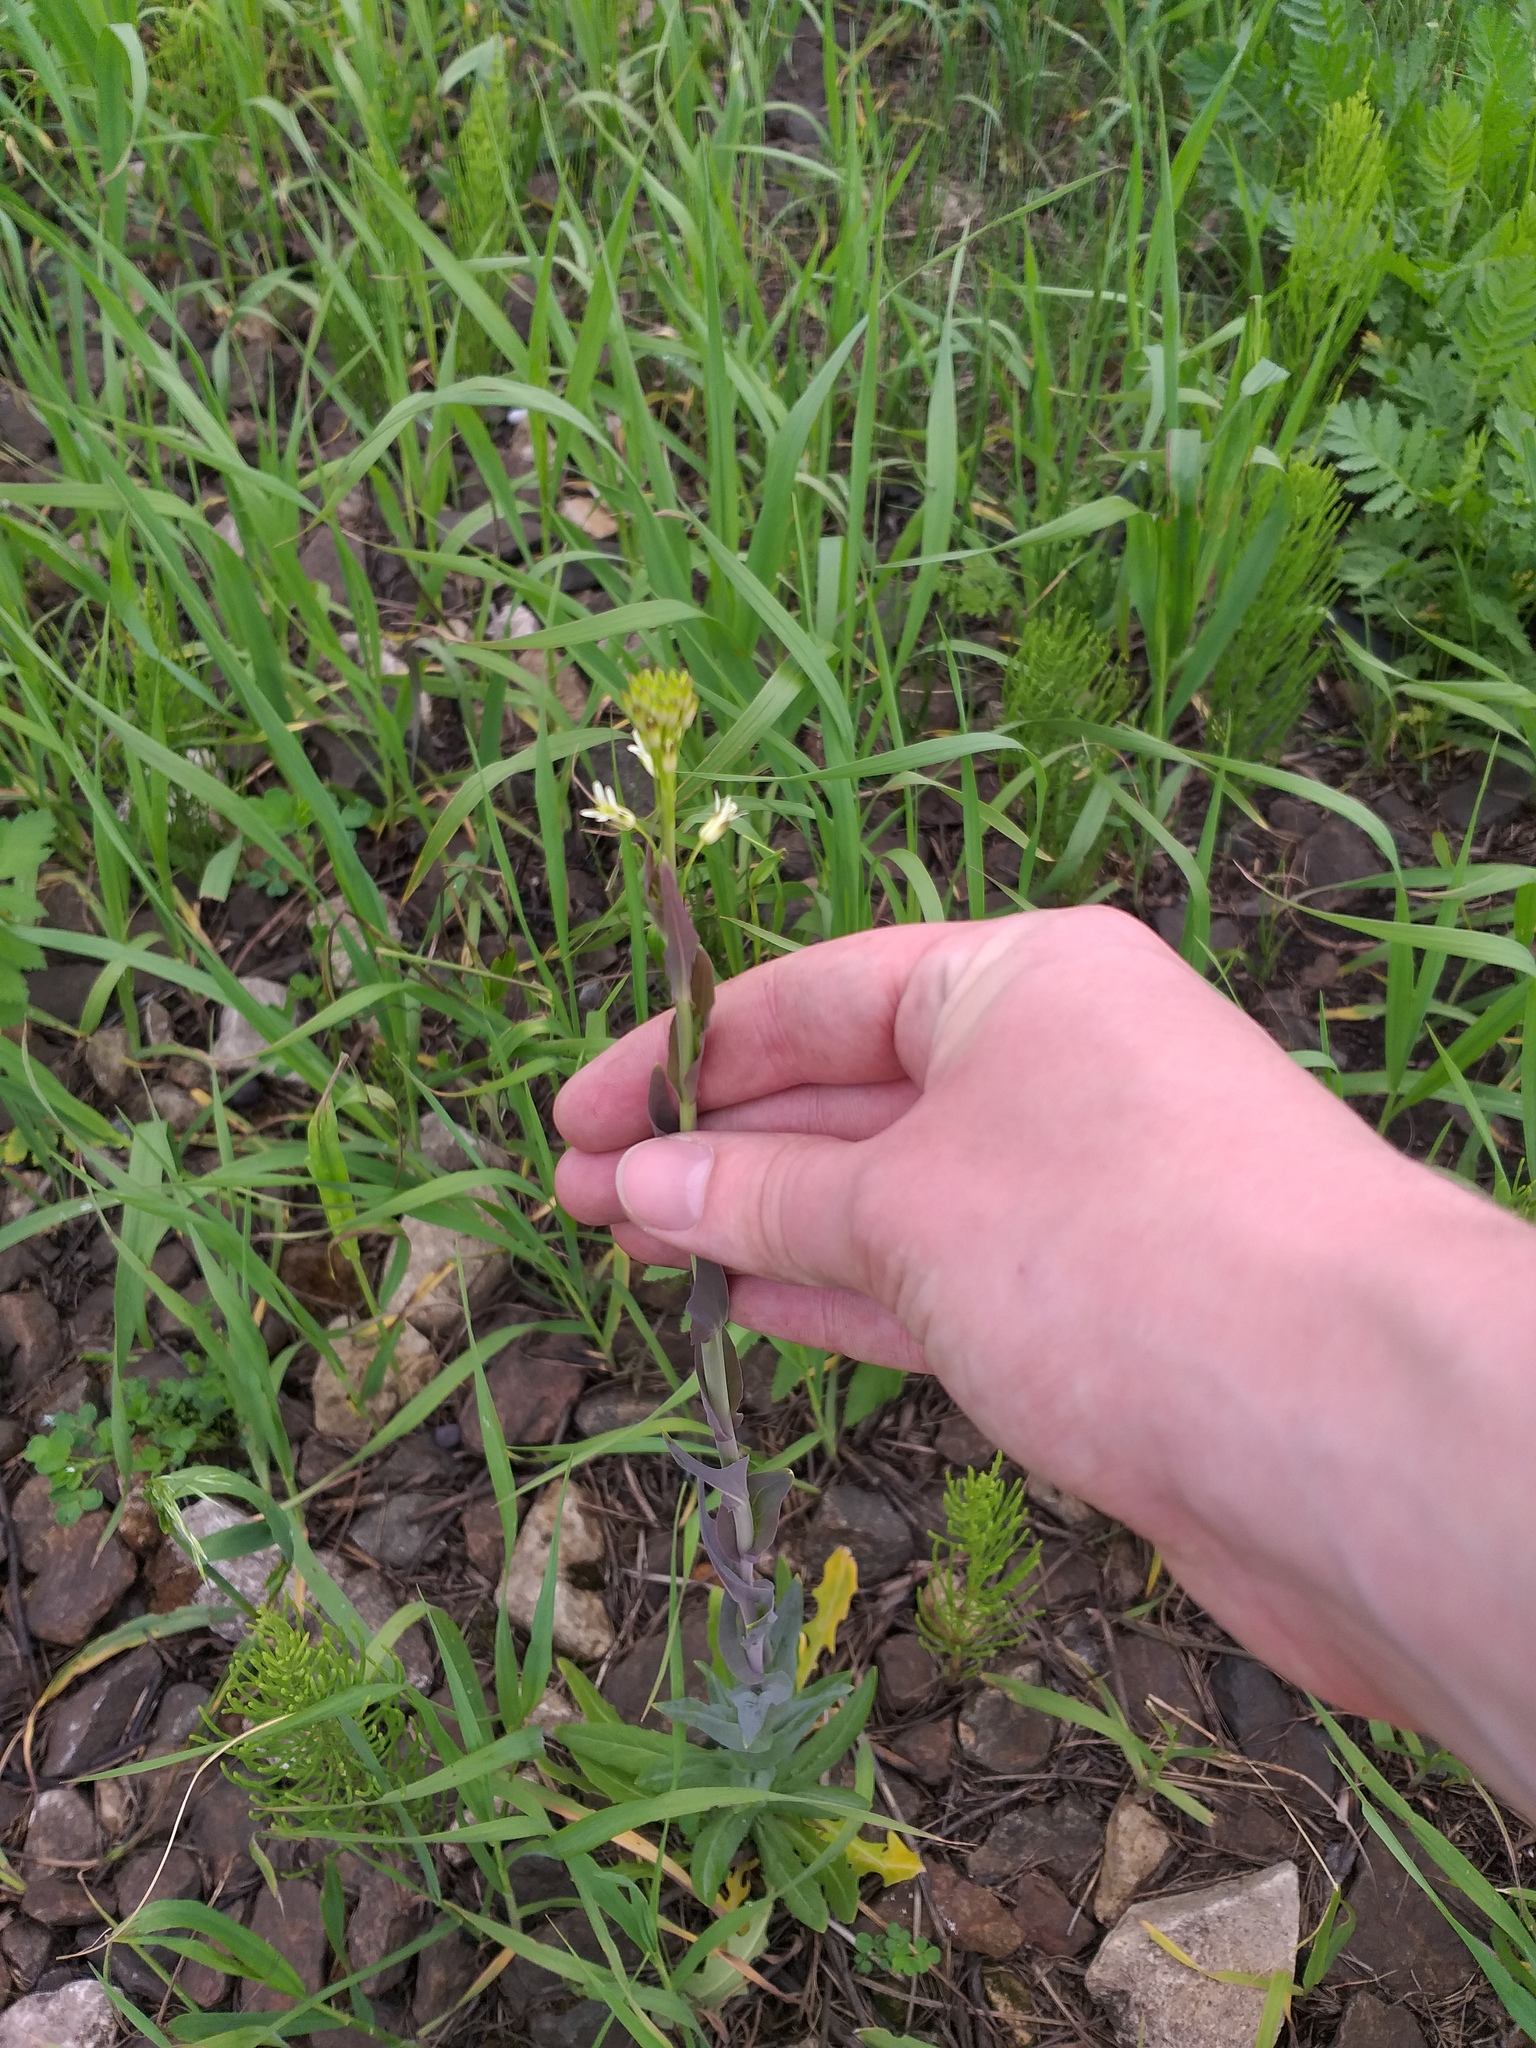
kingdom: Plantae
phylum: Tracheophyta
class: Magnoliopsida
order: Brassicales
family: Brassicaceae
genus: Turritis
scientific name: Turritis glabra
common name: Tower rockcress
